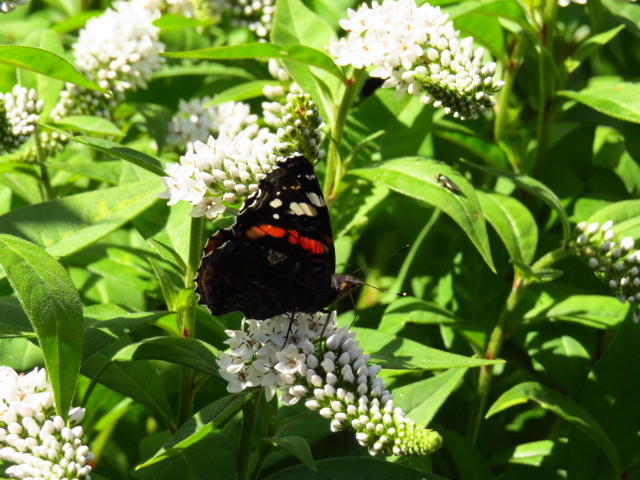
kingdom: Animalia
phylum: Arthropoda
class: Insecta
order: Lepidoptera
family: Nymphalidae
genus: Vanessa
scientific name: Vanessa atalanta
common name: Red admiral
